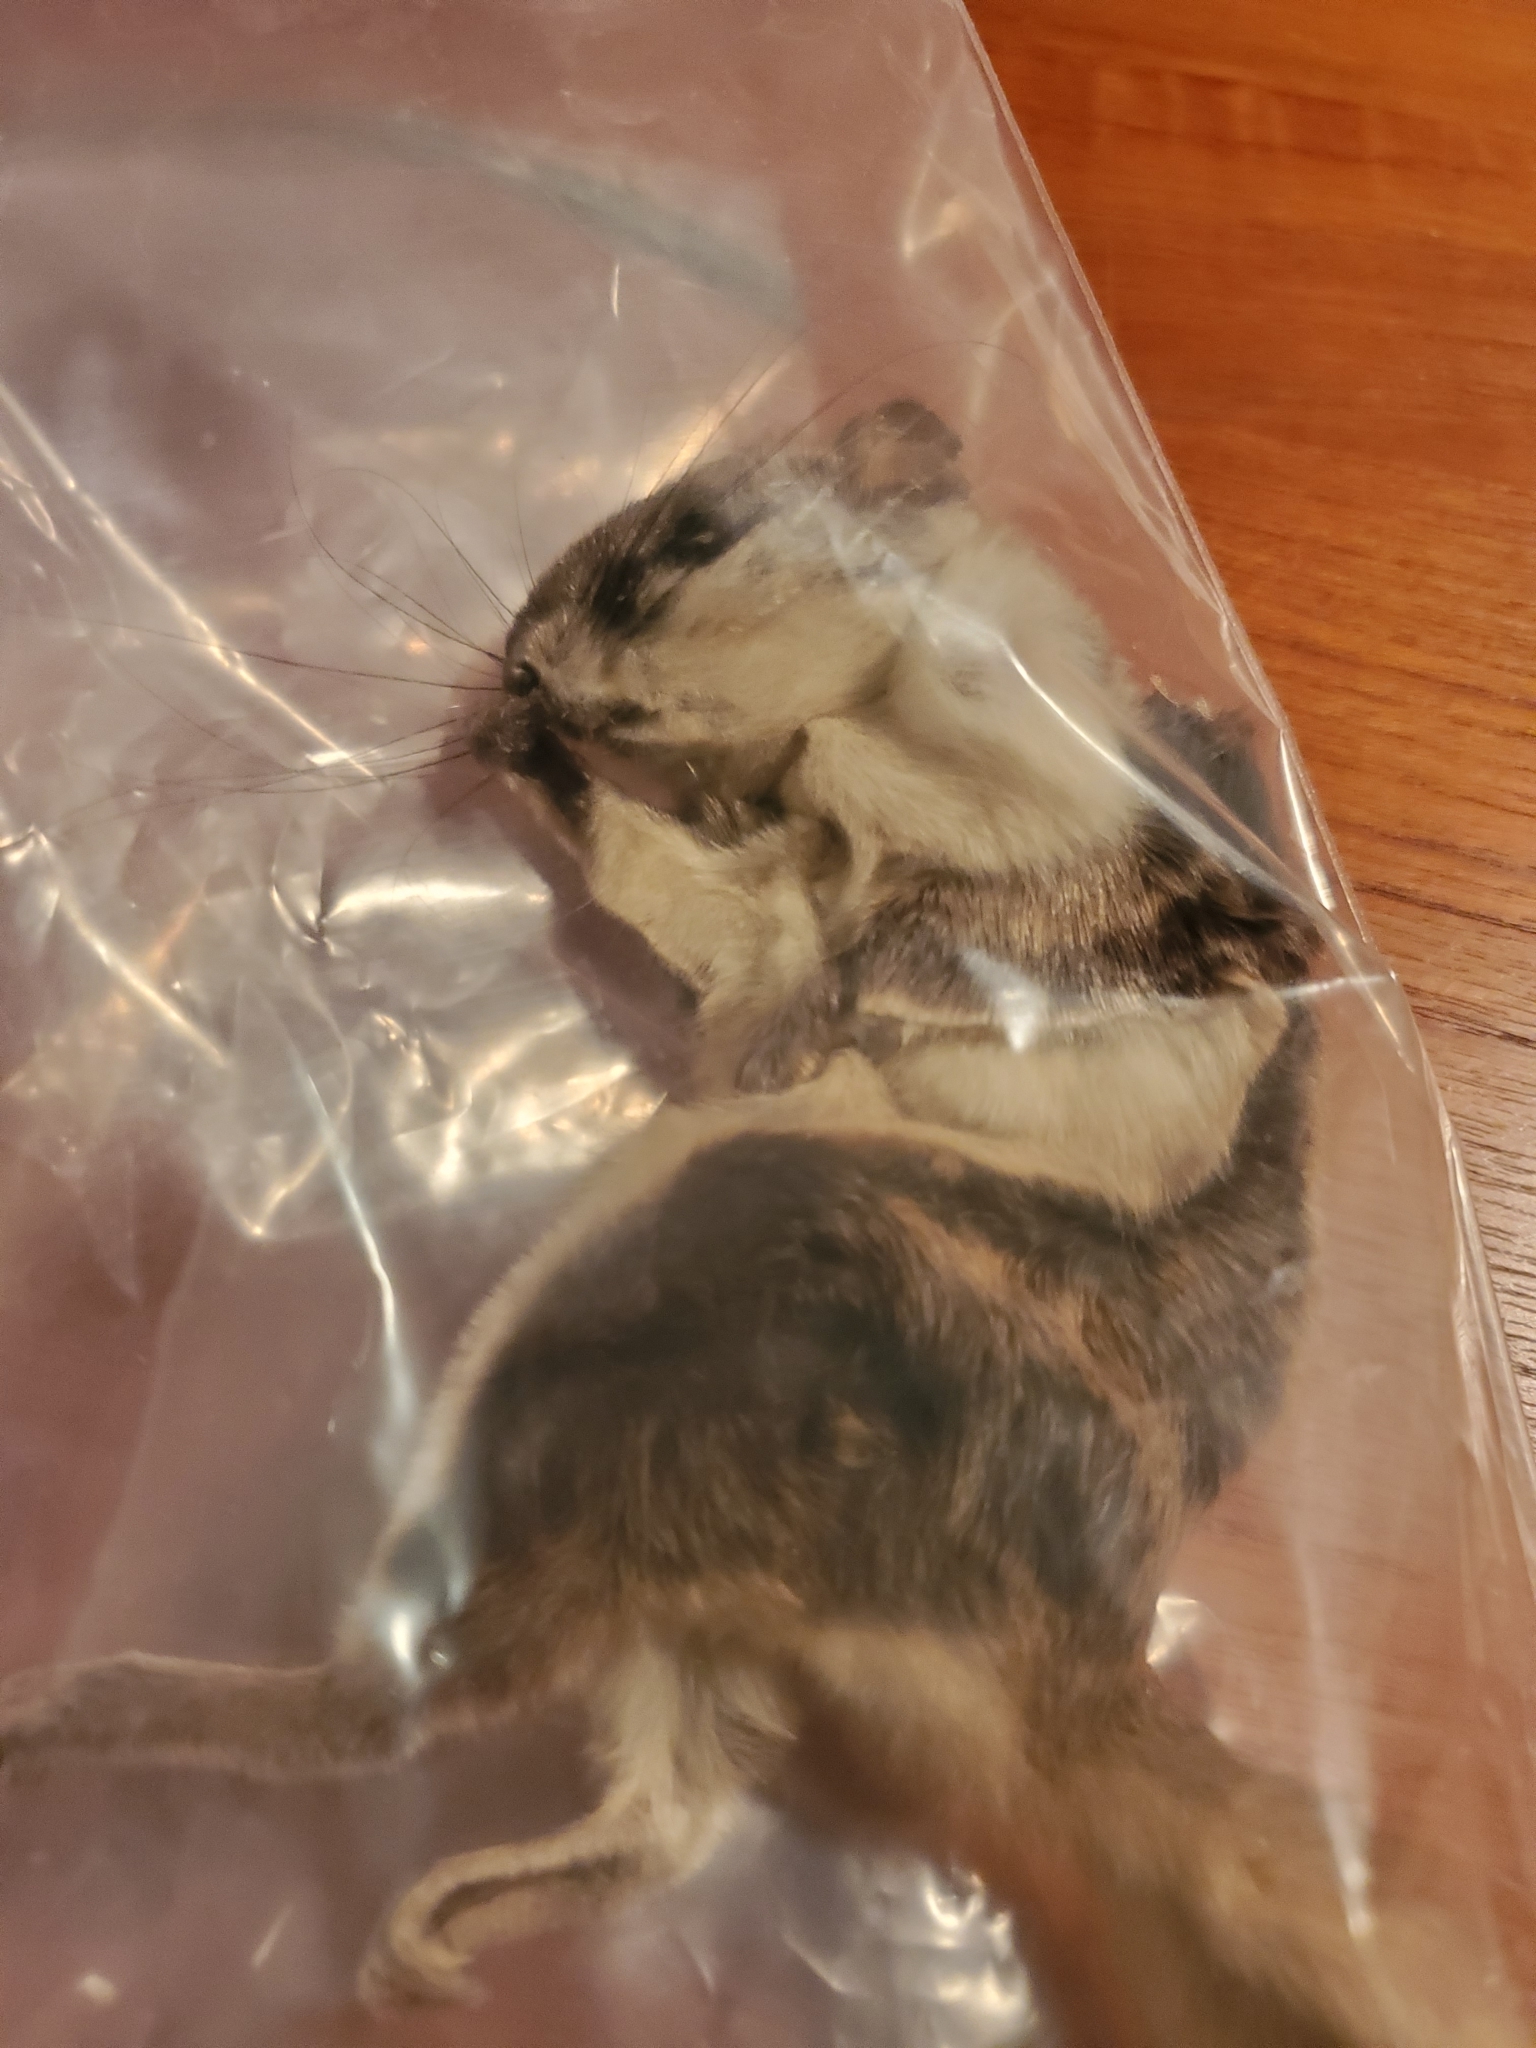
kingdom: Animalia
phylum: Chordata
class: Mammalia
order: Rodentia
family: Sciuridae
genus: Glaucomys
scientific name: Glaucomys volans
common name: Southern flying squirrel
